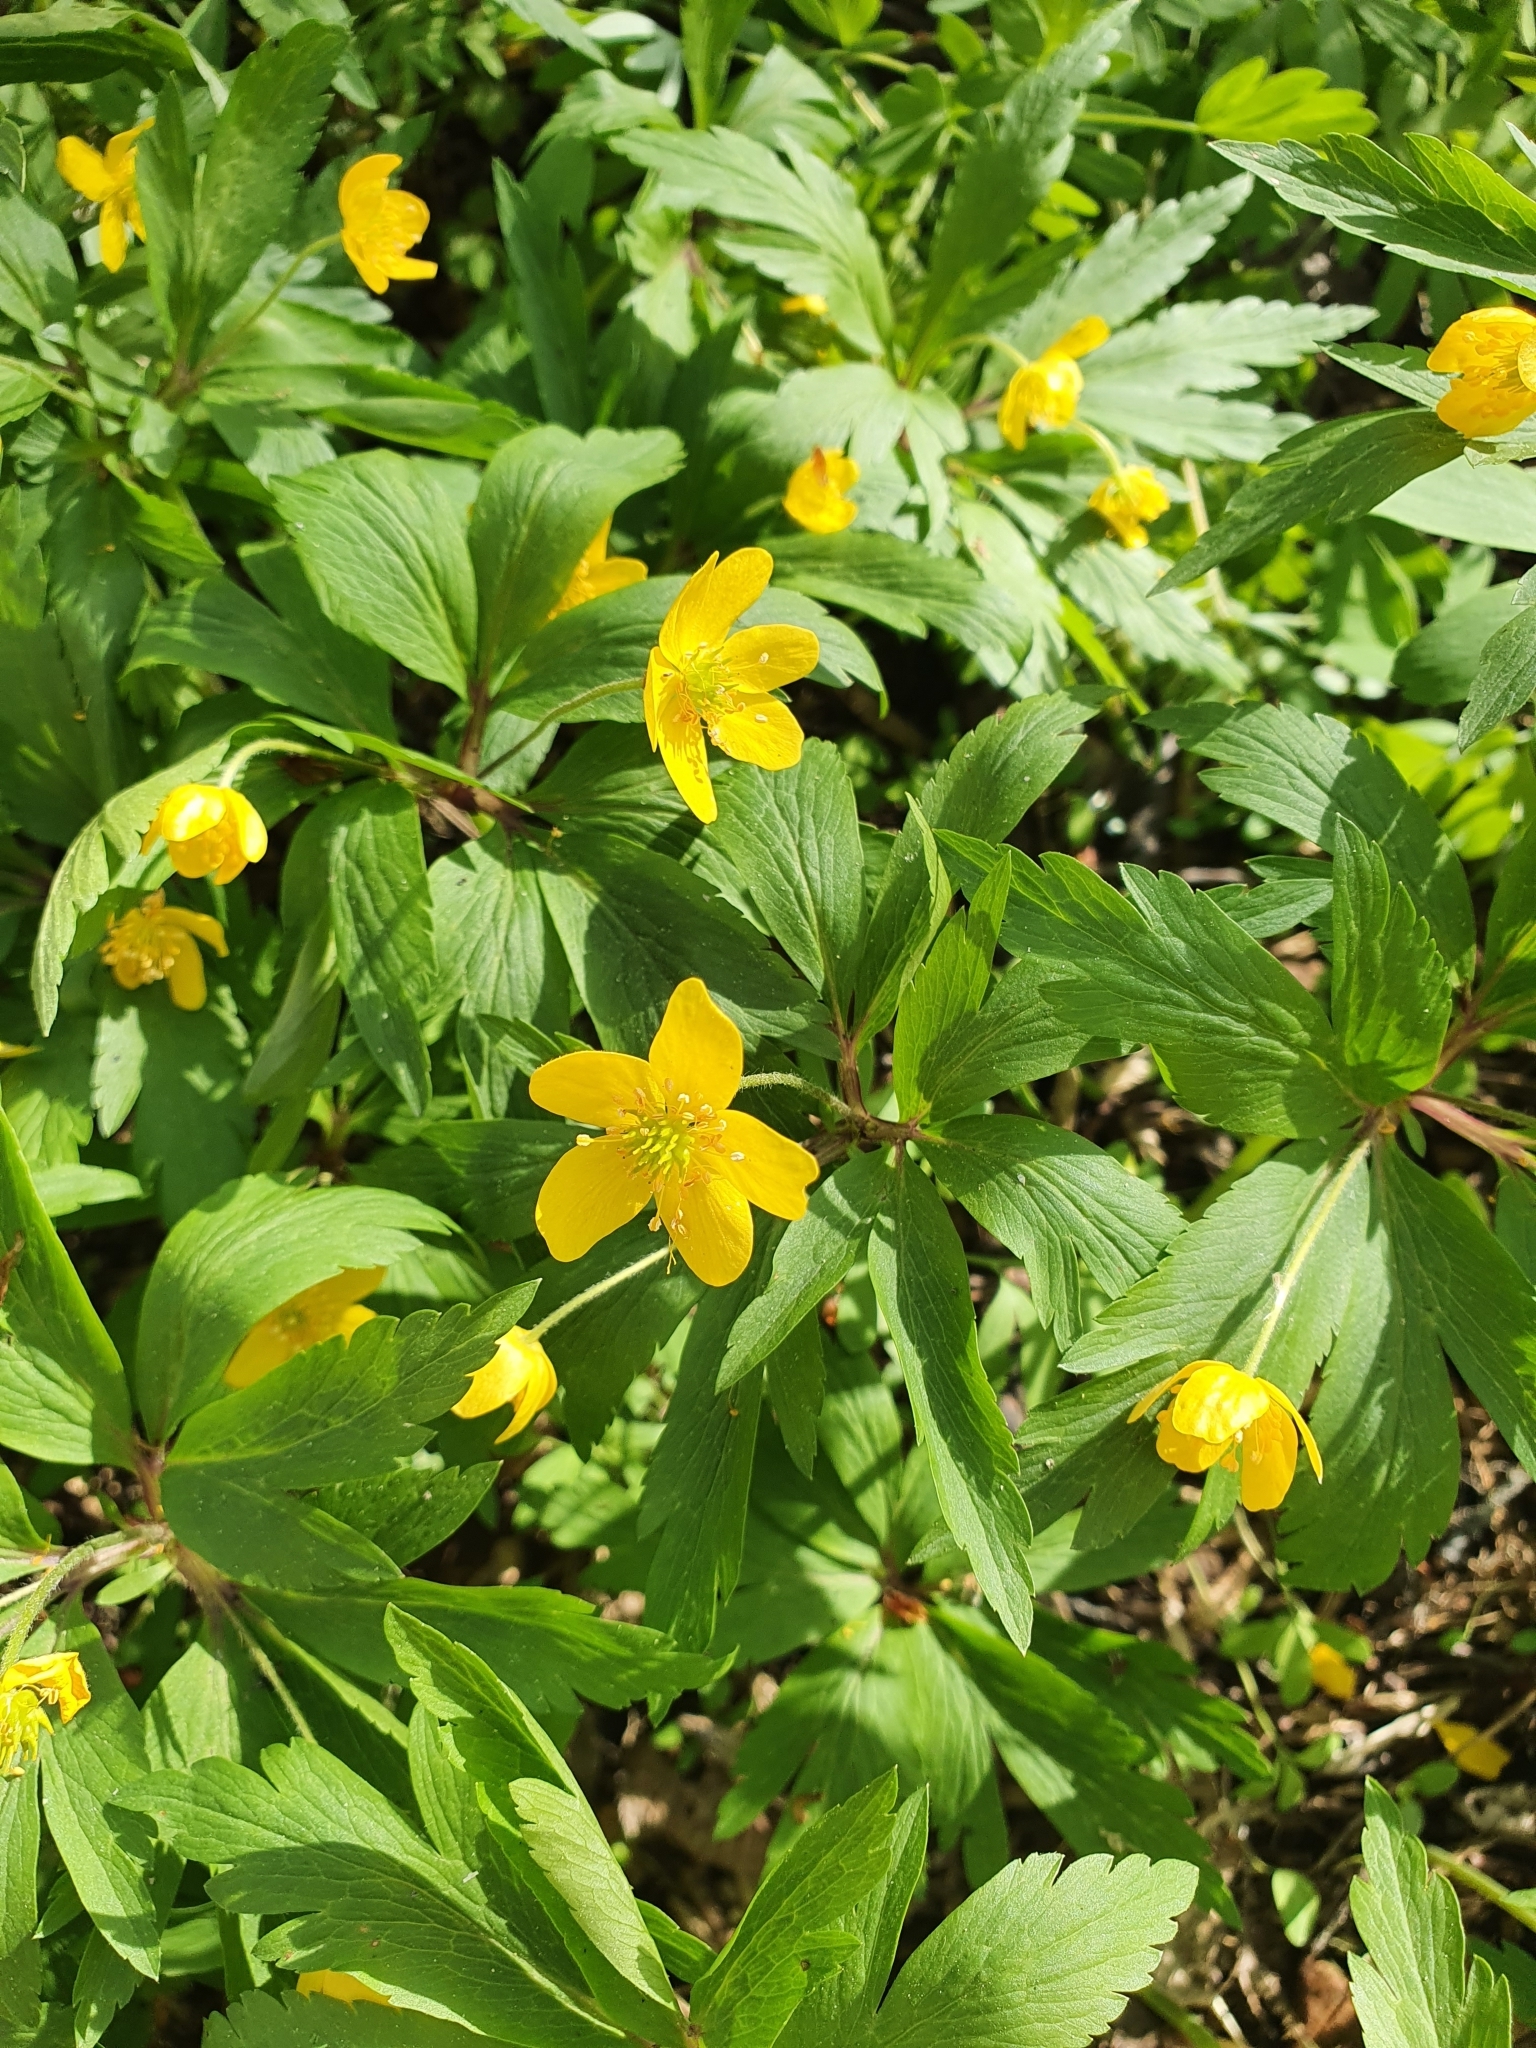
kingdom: Plantae
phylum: Tracheophyta
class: Magnoliopsida
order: Ranunculales
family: Ranunculaceae
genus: Anemone
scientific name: Anemone ranunculoides
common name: Yellow anemone
